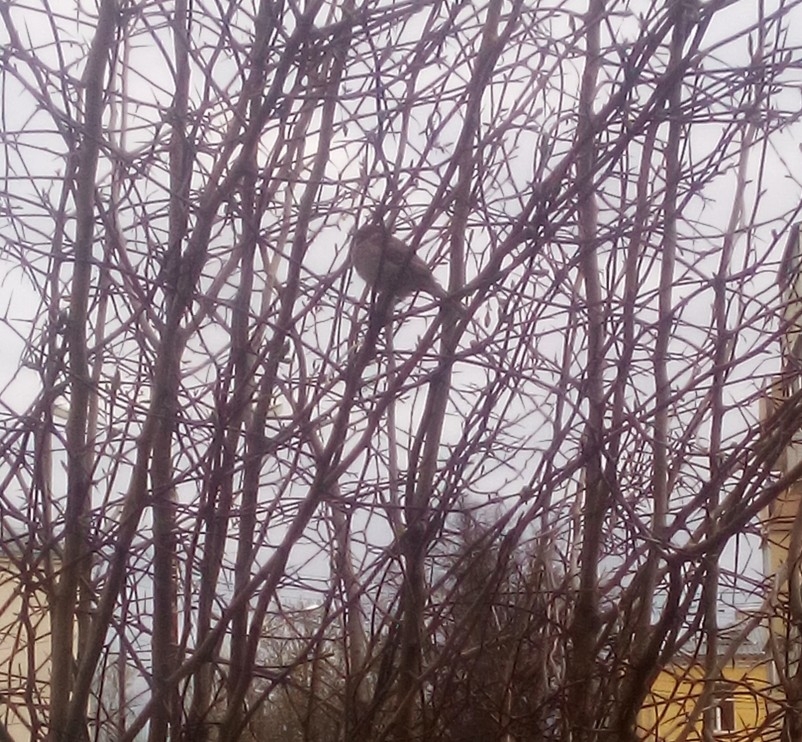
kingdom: Animalia
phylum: Chordata
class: Aves
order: Passeriformes
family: Passeridae
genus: Passer
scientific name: Passer montanus
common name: Eurasian tree sparrow
